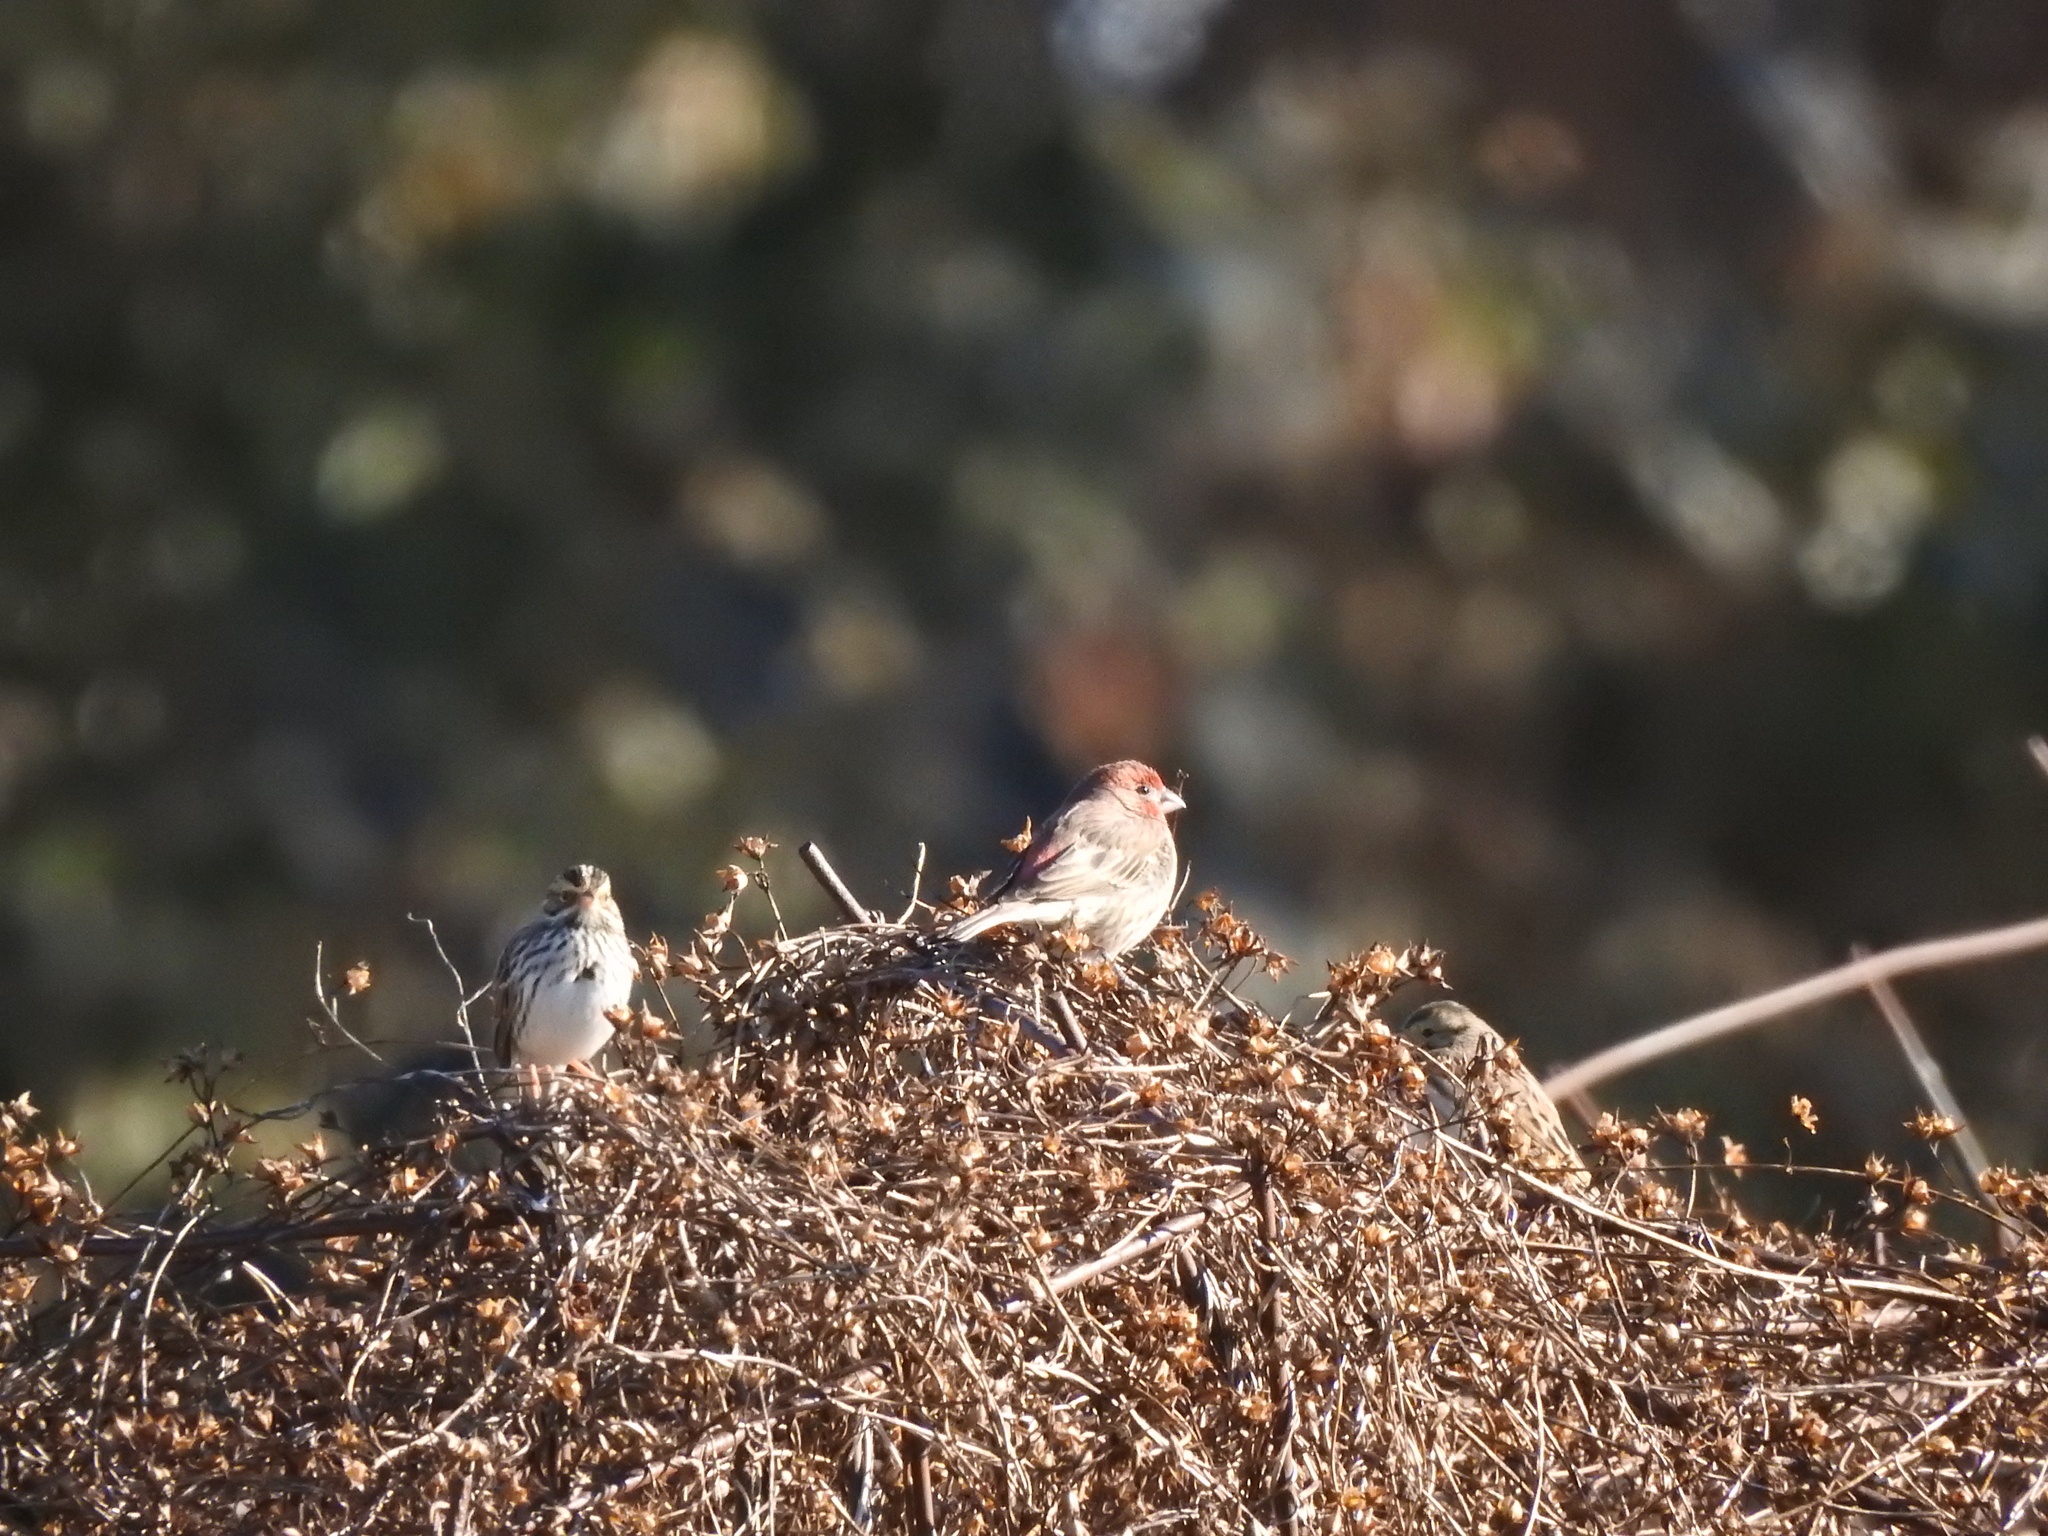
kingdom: Animalia
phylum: Chordata
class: Aves
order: Passeriformes
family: Fringillidae
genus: Haemorhous
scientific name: Haemorhous mexicanus
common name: House finch
